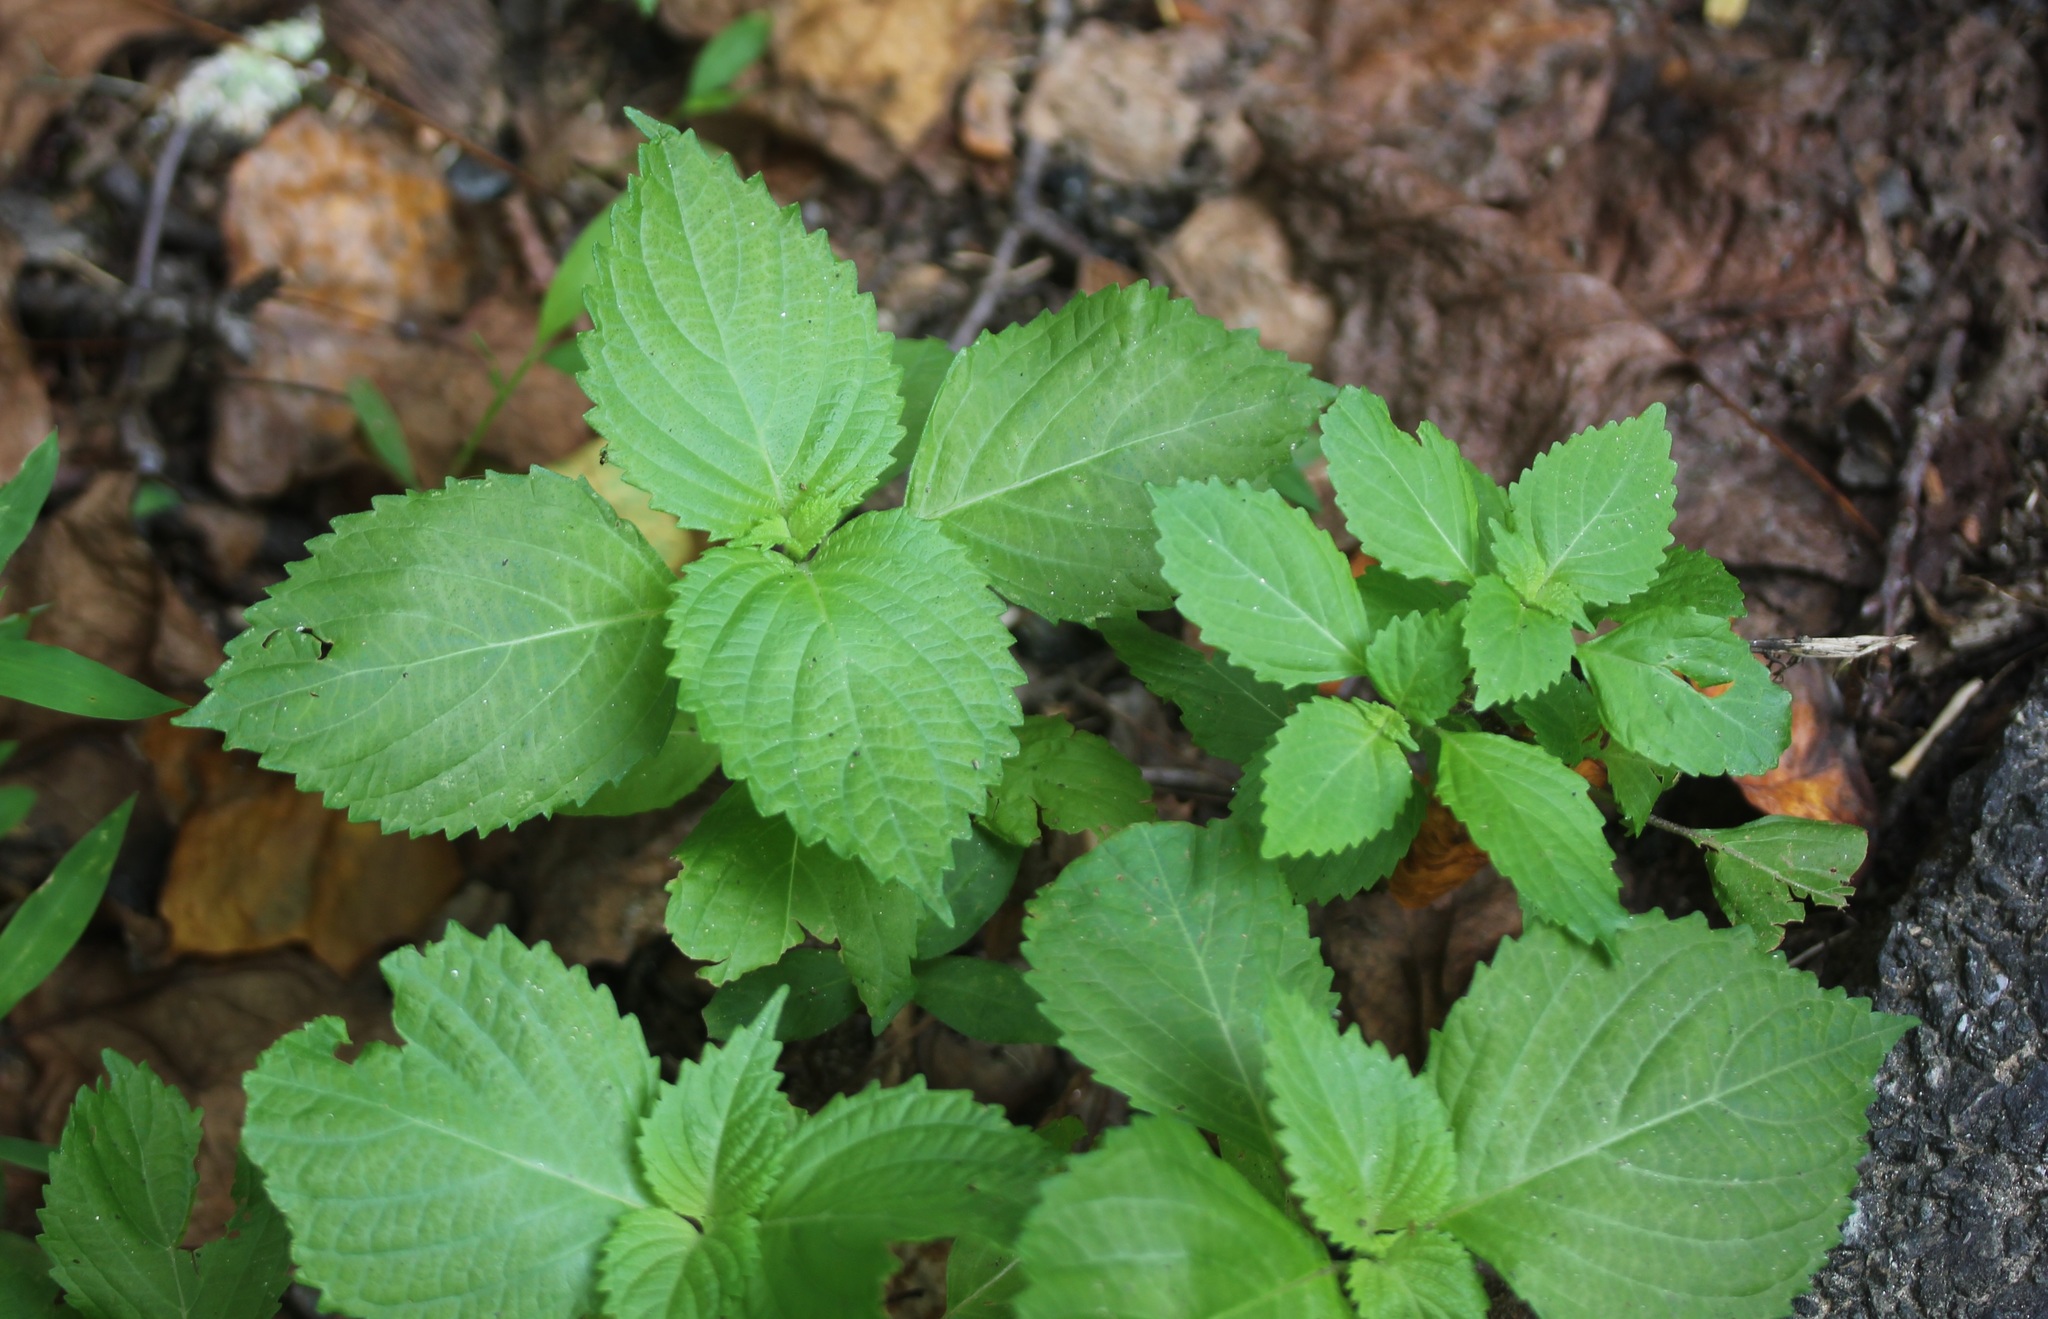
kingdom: Plantae
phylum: Tracheophyta
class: Magnoliopsida
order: Lamiales
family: Lamiaceae
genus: Perilla
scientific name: Perilla frutescens
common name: Perilla
